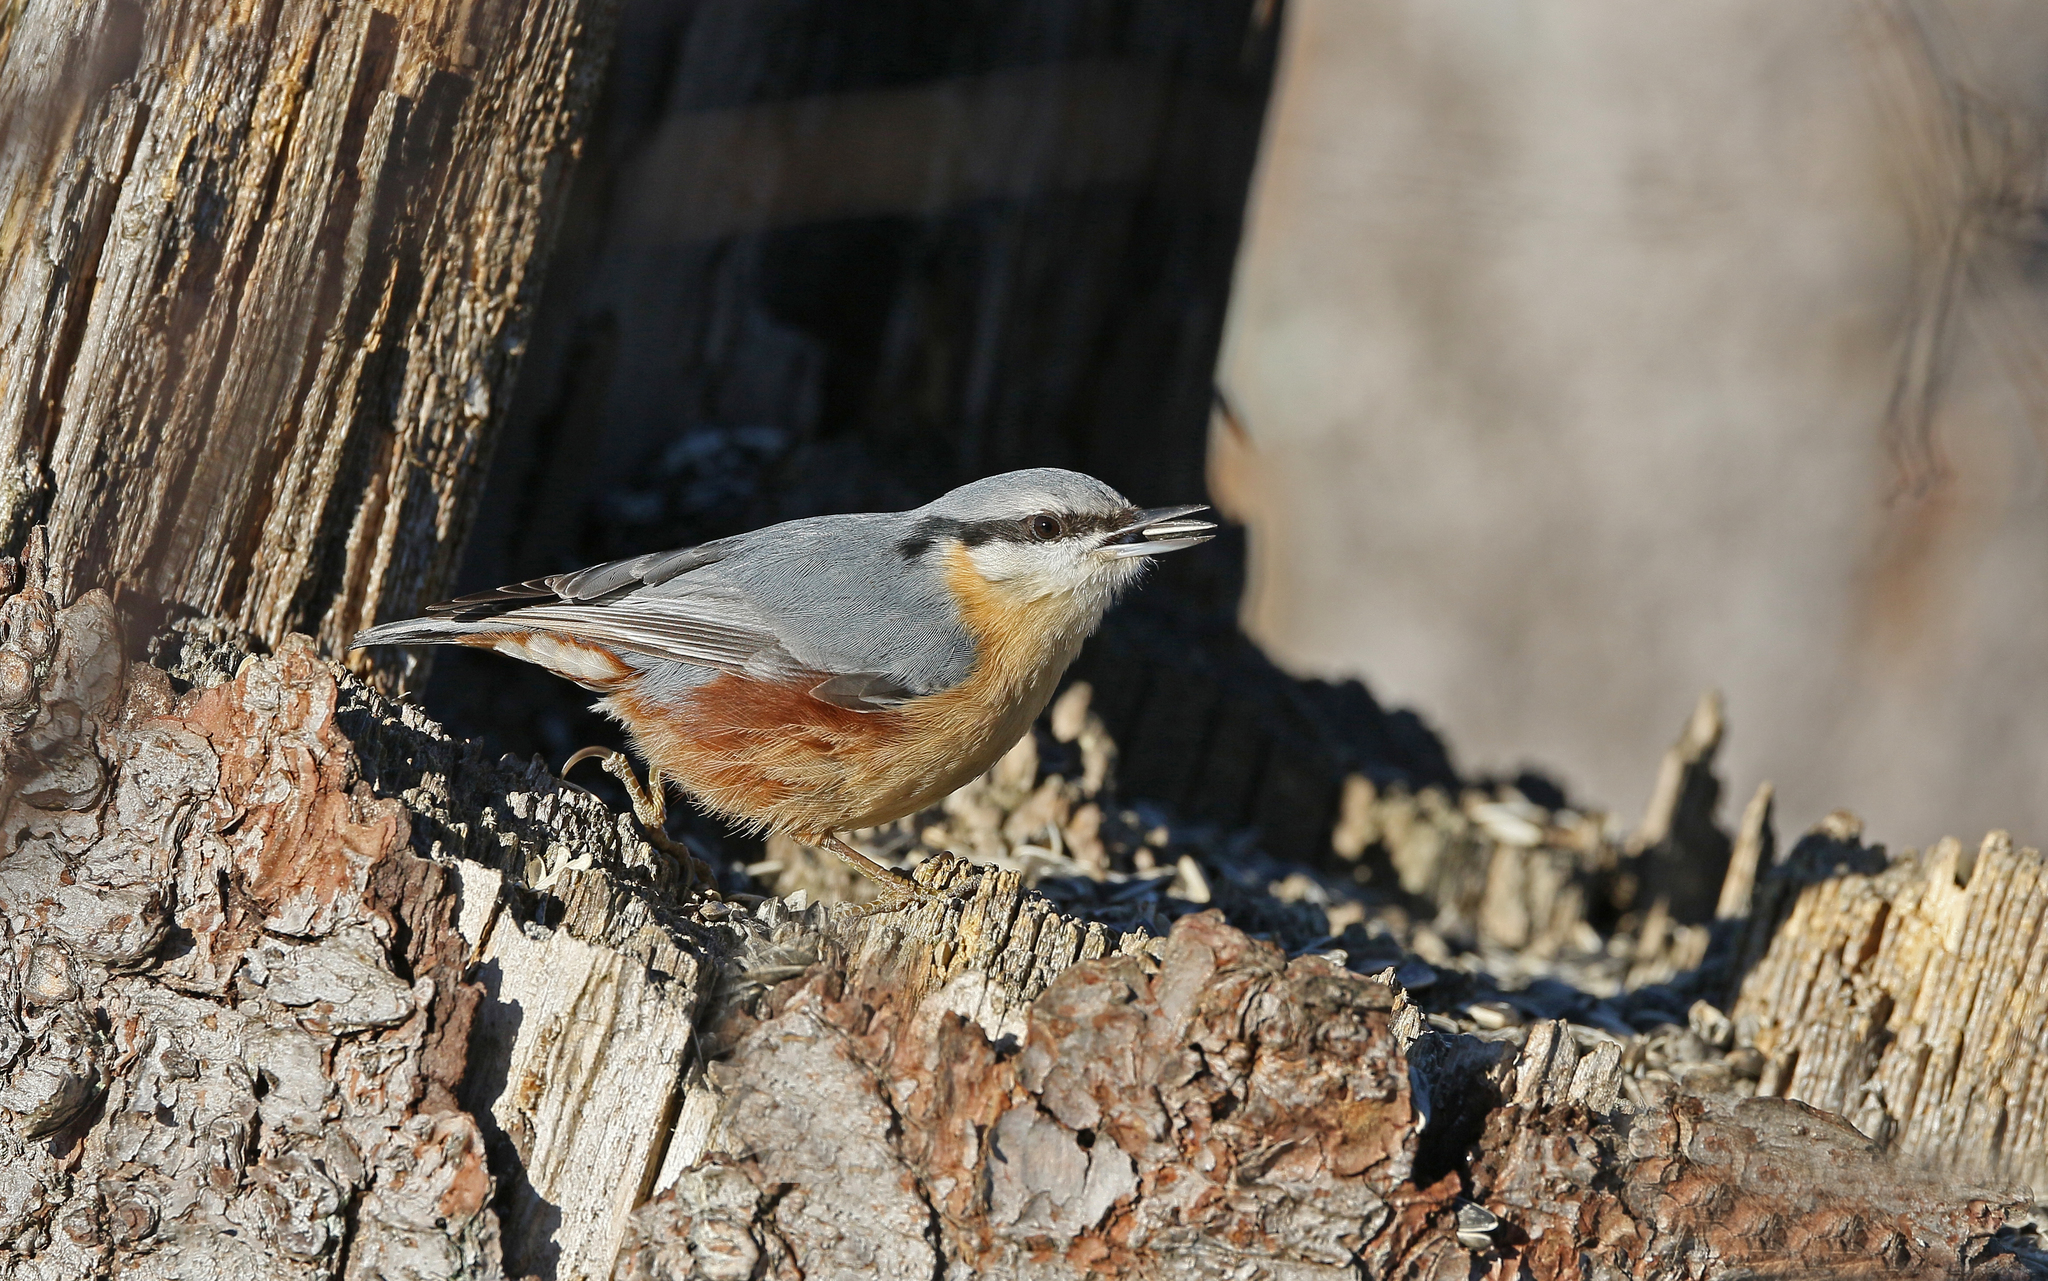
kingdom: Animalia
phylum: Chordata
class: Aves
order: Passeriformes
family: Sittidae
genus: Sitta
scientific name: Sitta europaea
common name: Eurasian nuthatch
